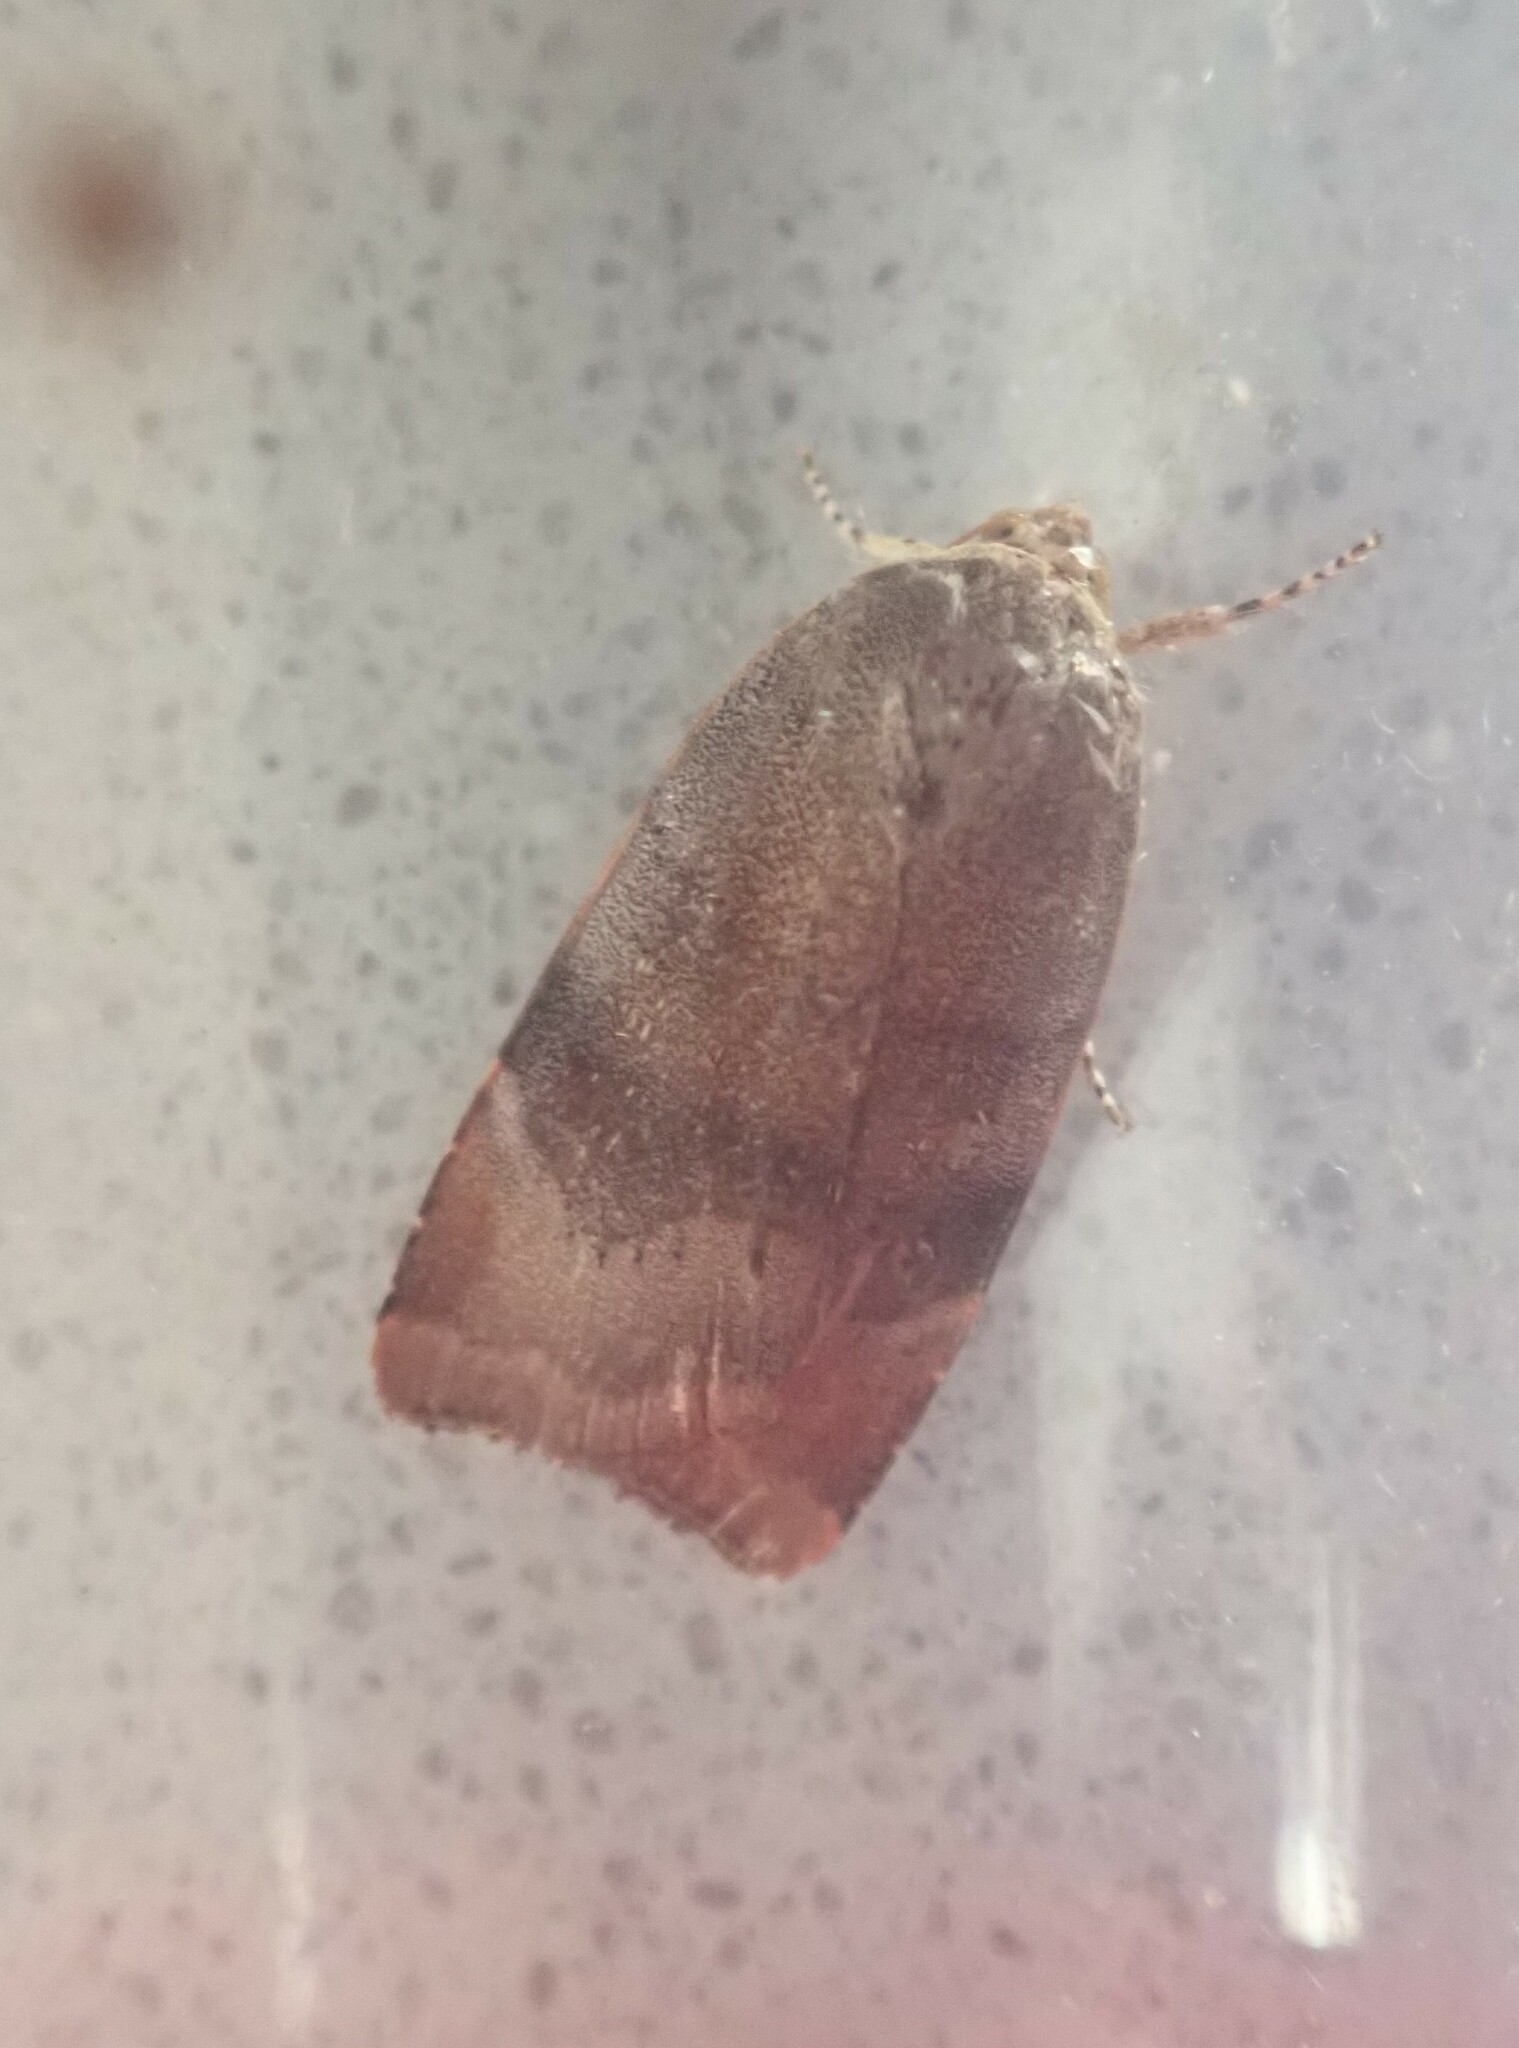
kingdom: Animalia
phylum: Arthropoda
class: Insecta
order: Lepidoptera
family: Noctuidae
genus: Noctua
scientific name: Noctua
